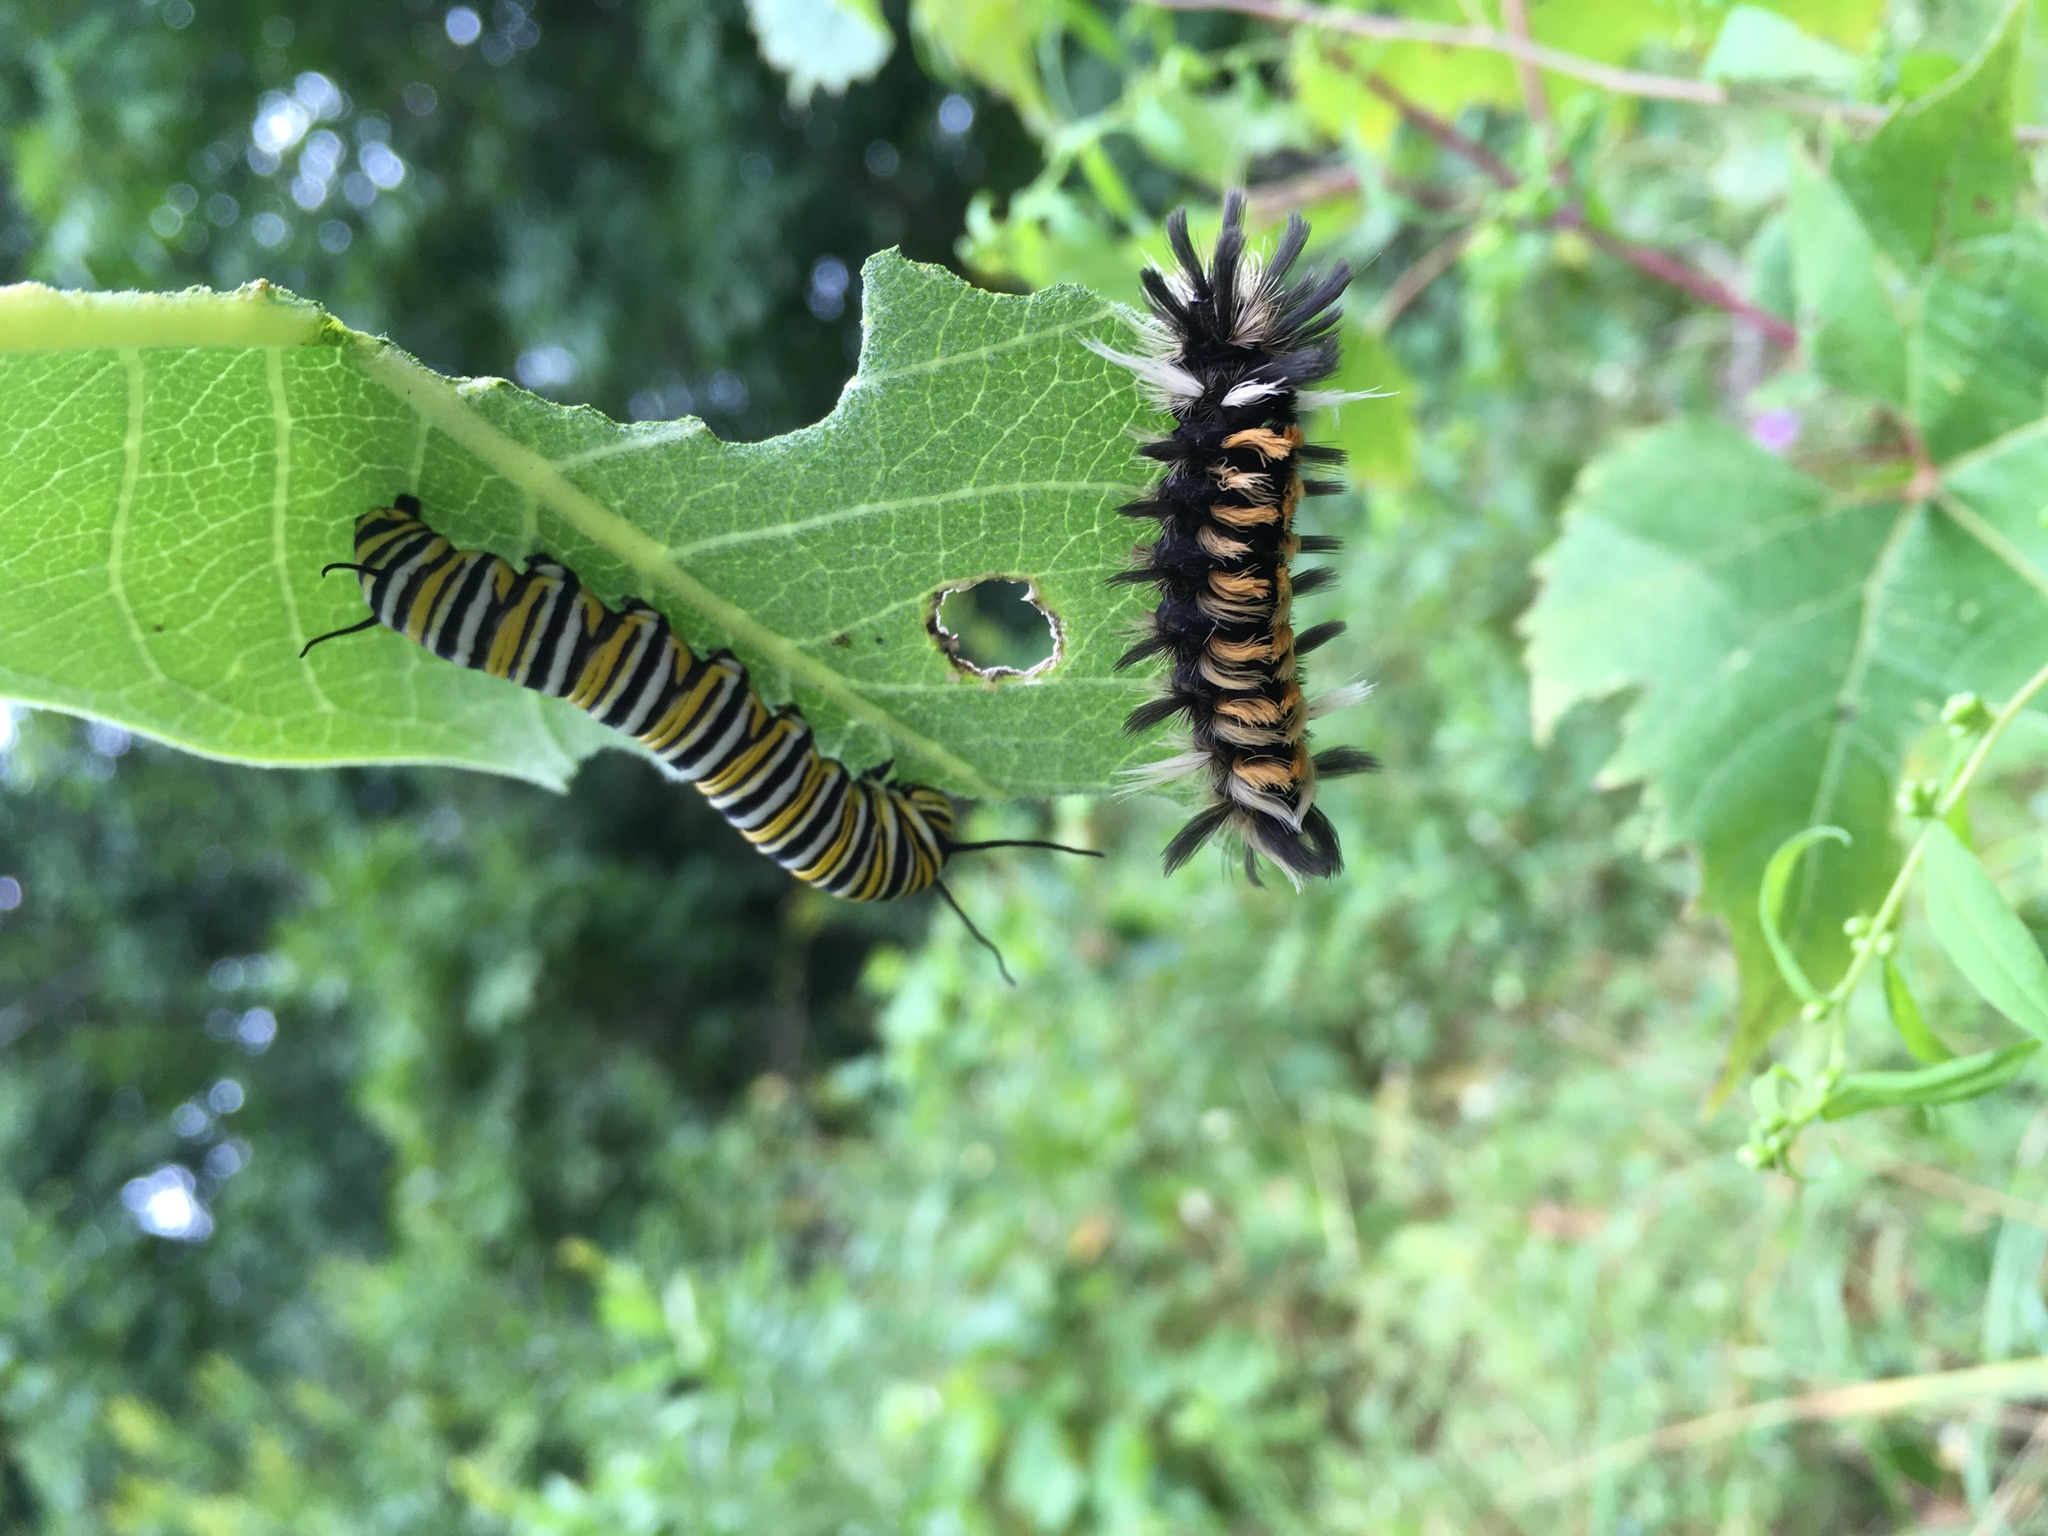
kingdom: Animalia
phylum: Arthropoda
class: Insecta
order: Lepidoptera
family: Nymphalidae
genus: Danaus
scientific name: Danaus plexippus
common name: Monarch
